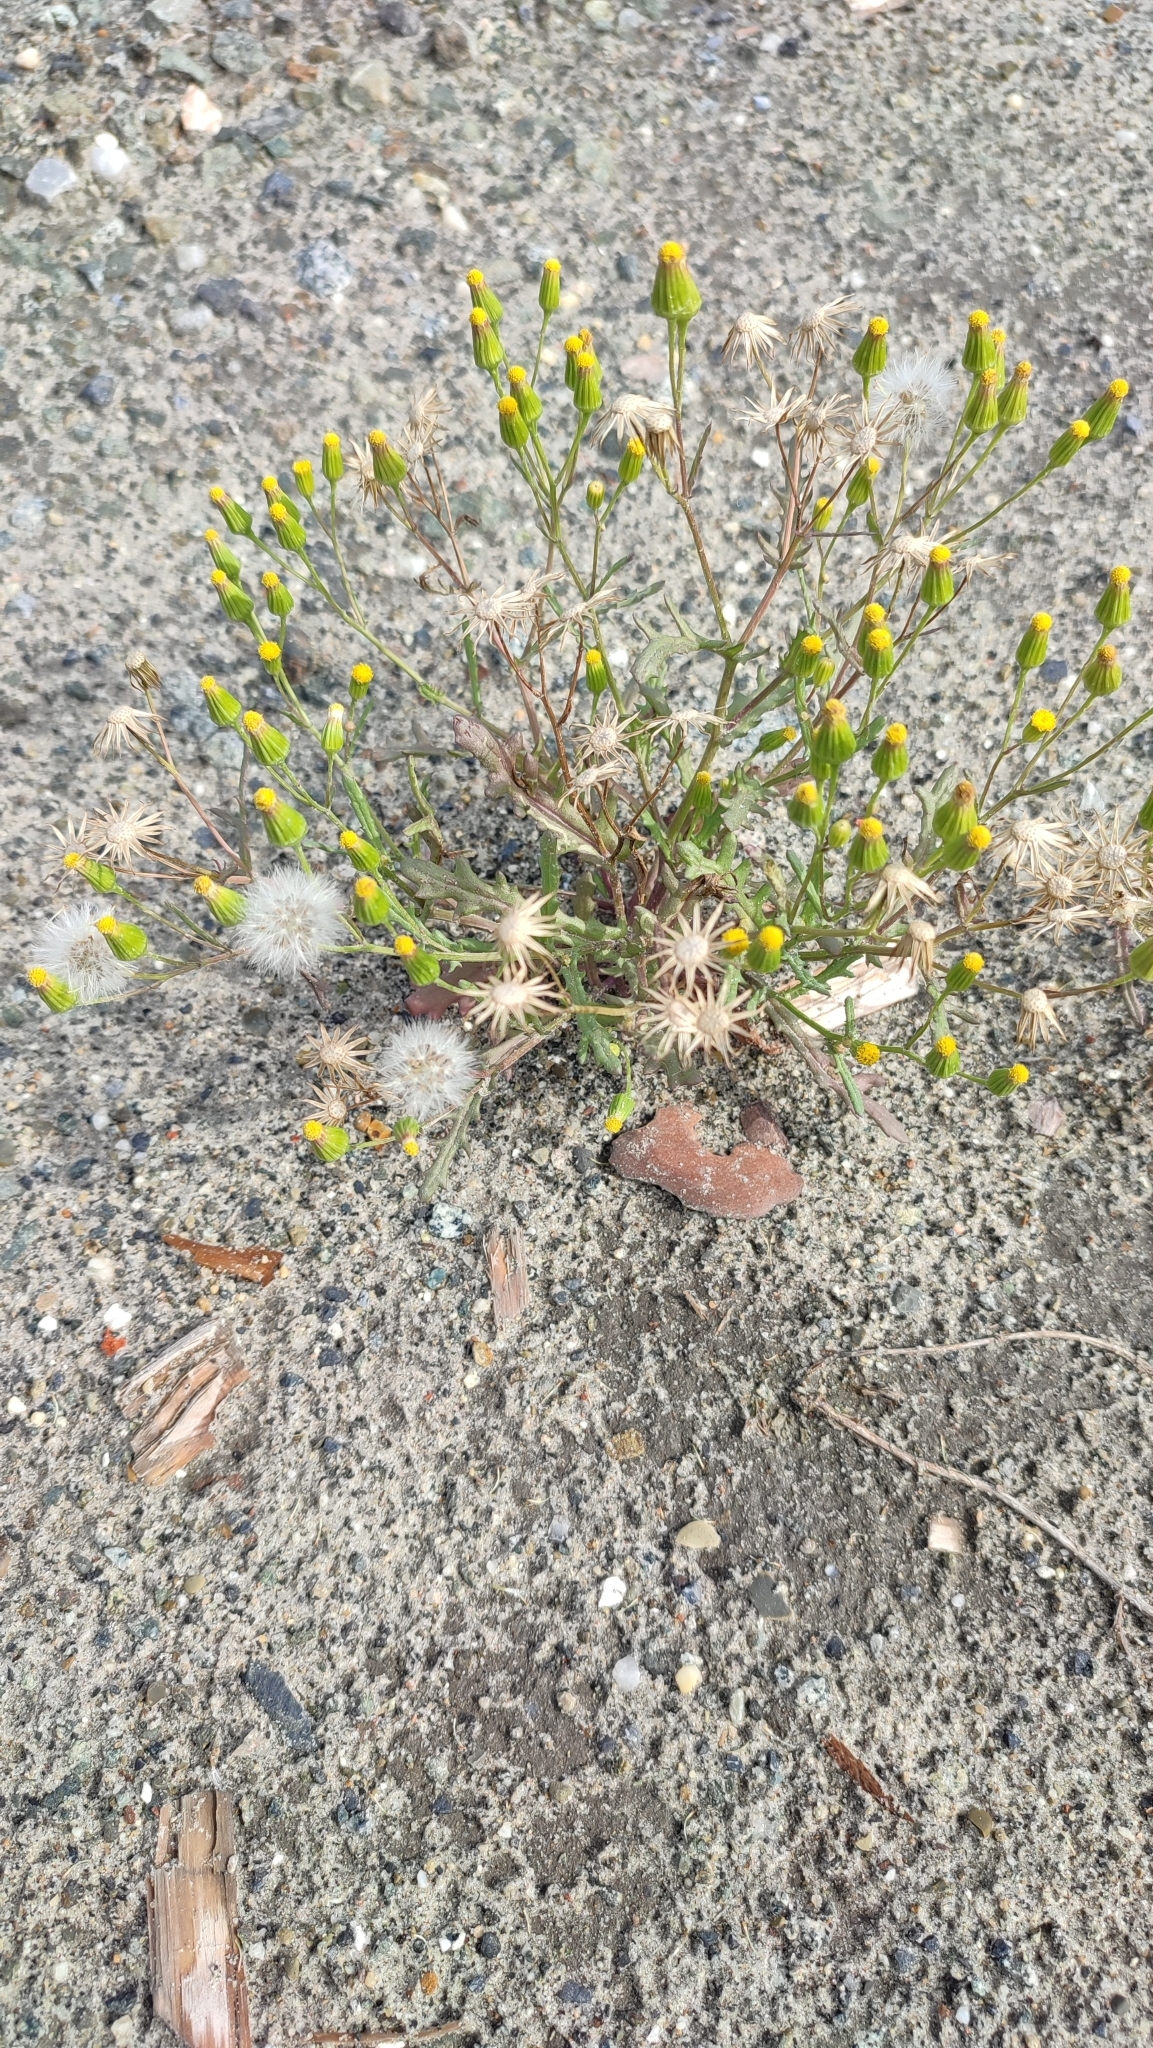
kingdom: Plantae
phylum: Tracheophyta
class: Magnoliopsida
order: Asterales
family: Asteraceae
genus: Senecio
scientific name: Senecio dubitabilis
